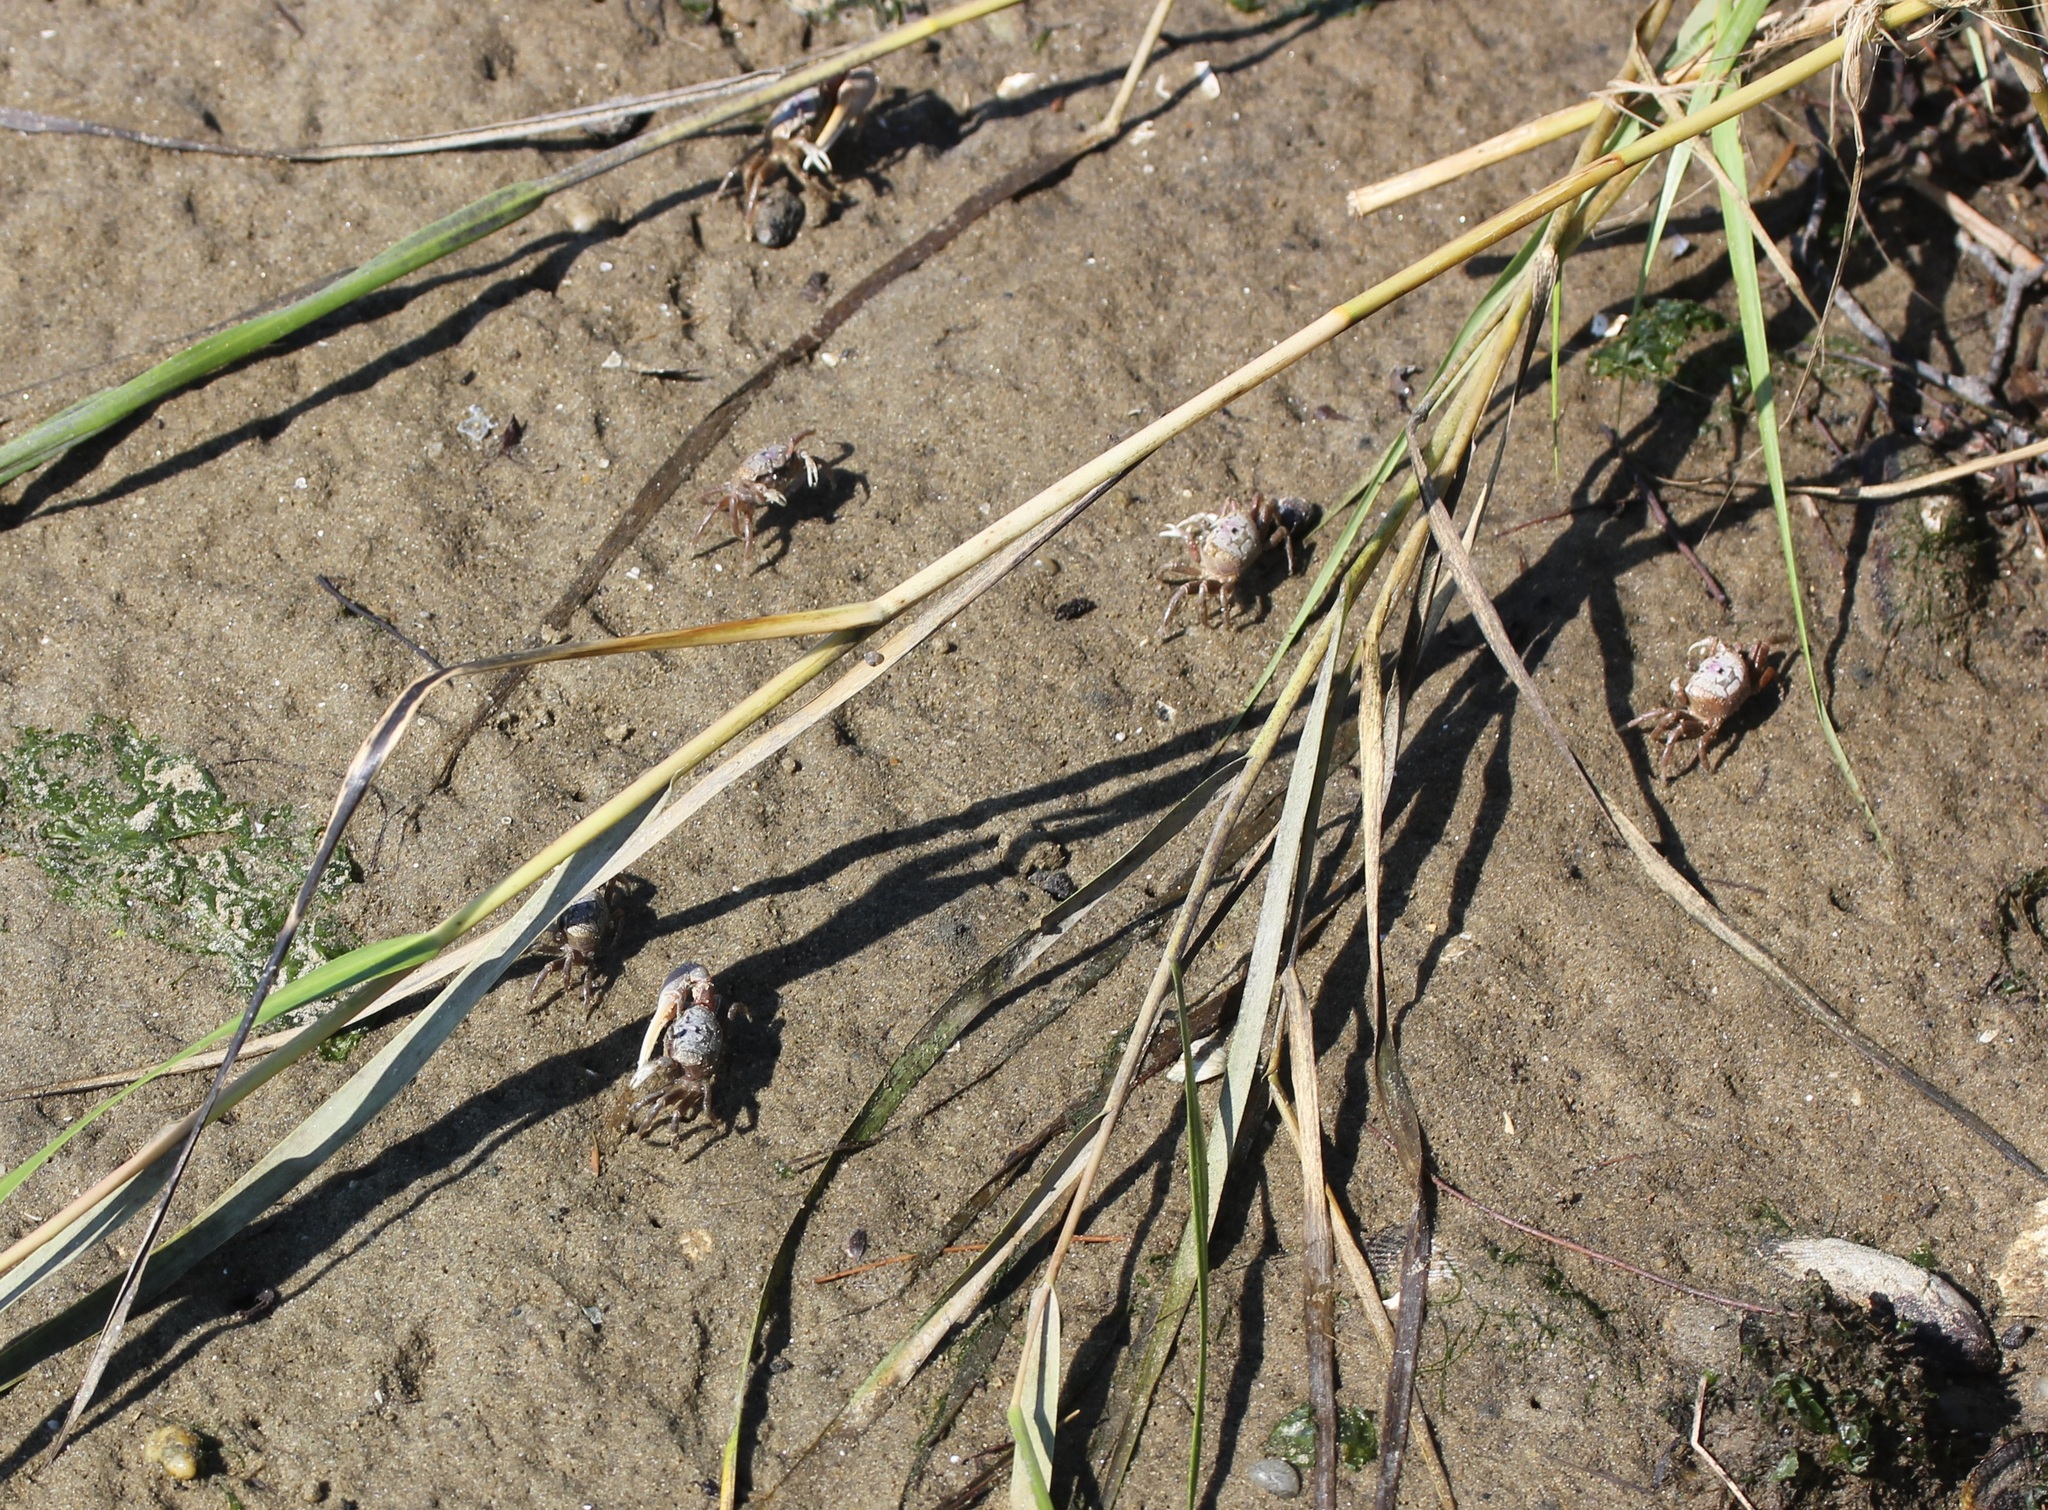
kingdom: Animalia
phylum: Arthropoda
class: Malacostraca
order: Decapoda
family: Ocypodidae
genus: Leptuca
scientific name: Leptuca pugilator
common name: Atlantic sand fiddler crab
